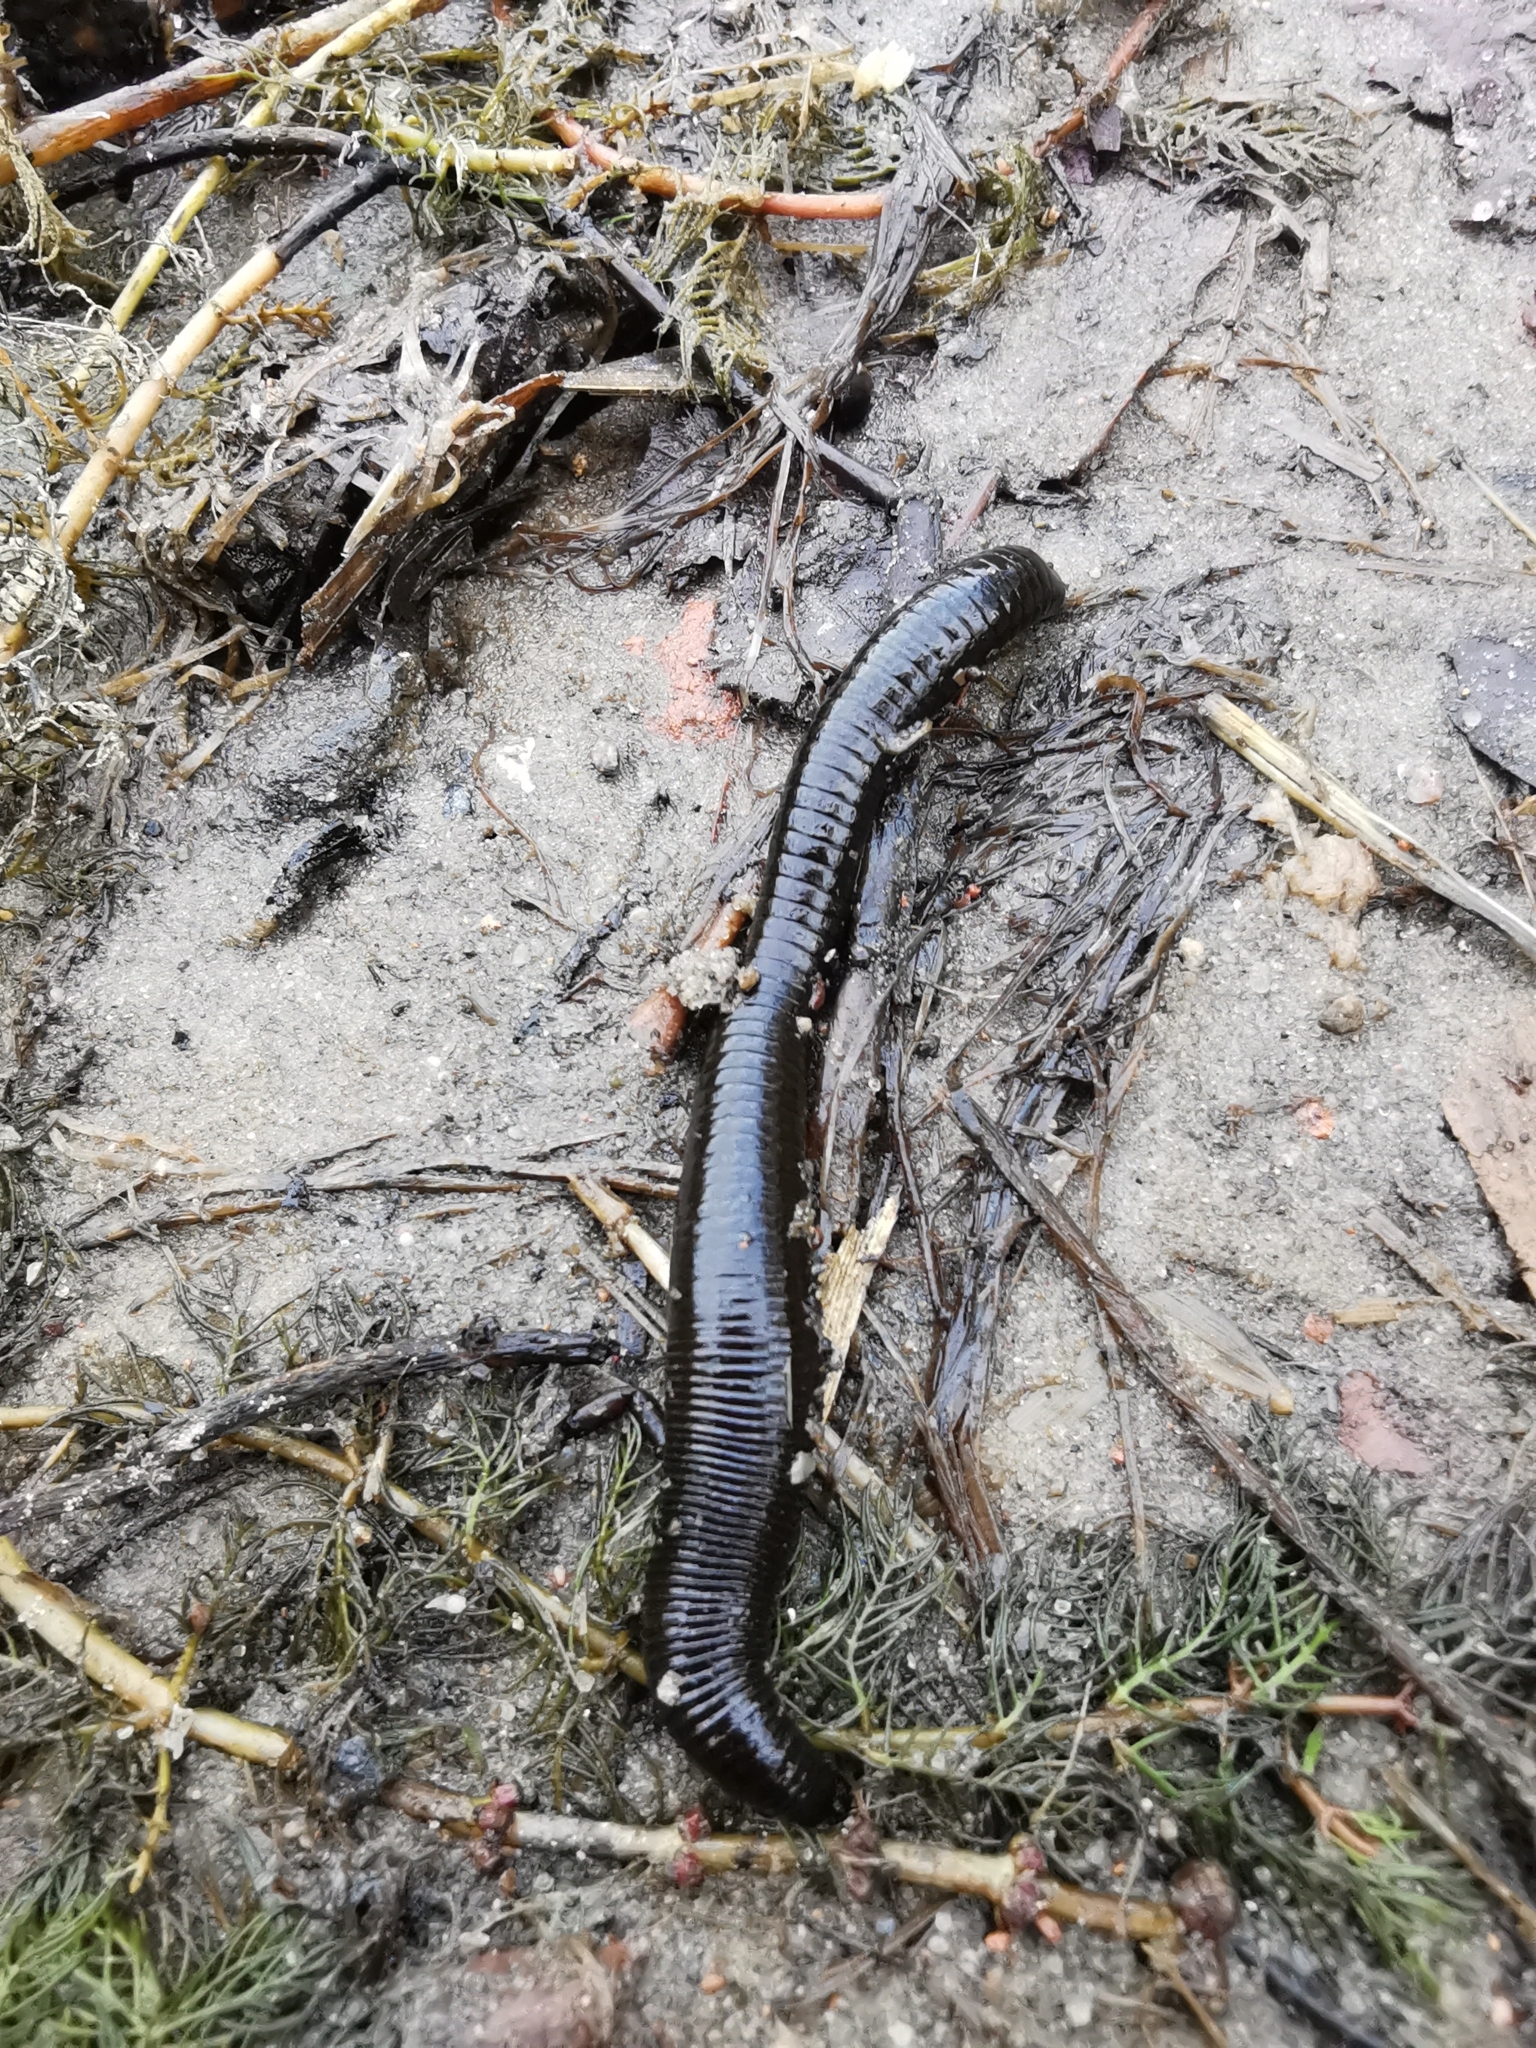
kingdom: Animalia
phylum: Annelida
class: Clitellata
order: Arhynchobdellida
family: Haemopidae
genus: Haemopis
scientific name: Haemopis sanguisuga
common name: Horse leech
